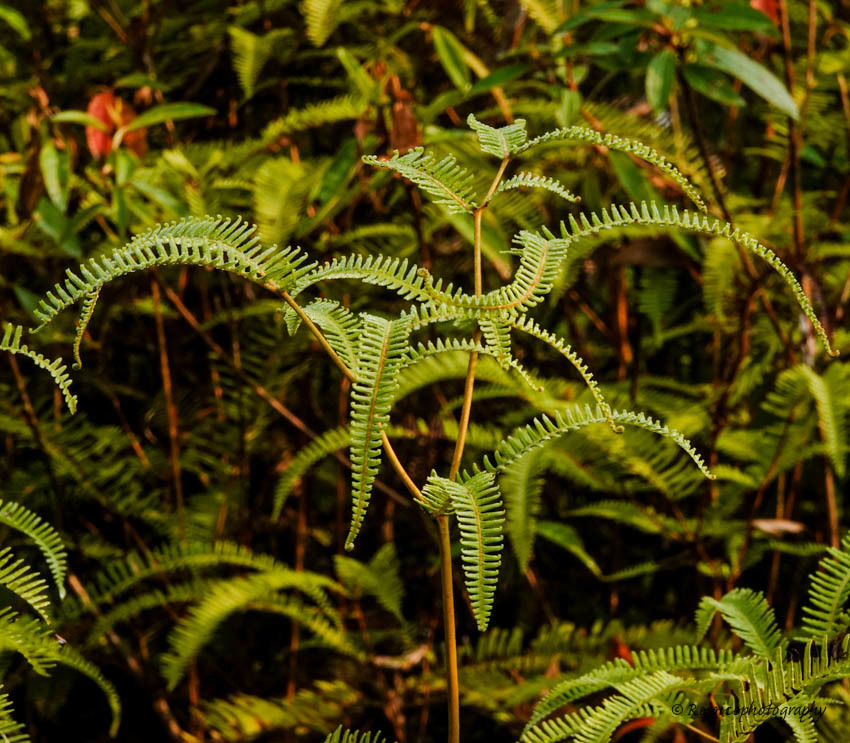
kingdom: Plantae
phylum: Tracheophyta
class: Polypodiopsida
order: Gleicheniales
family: Gleicheniaceae
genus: Dicranopteris
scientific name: Dicranopteris linearis
